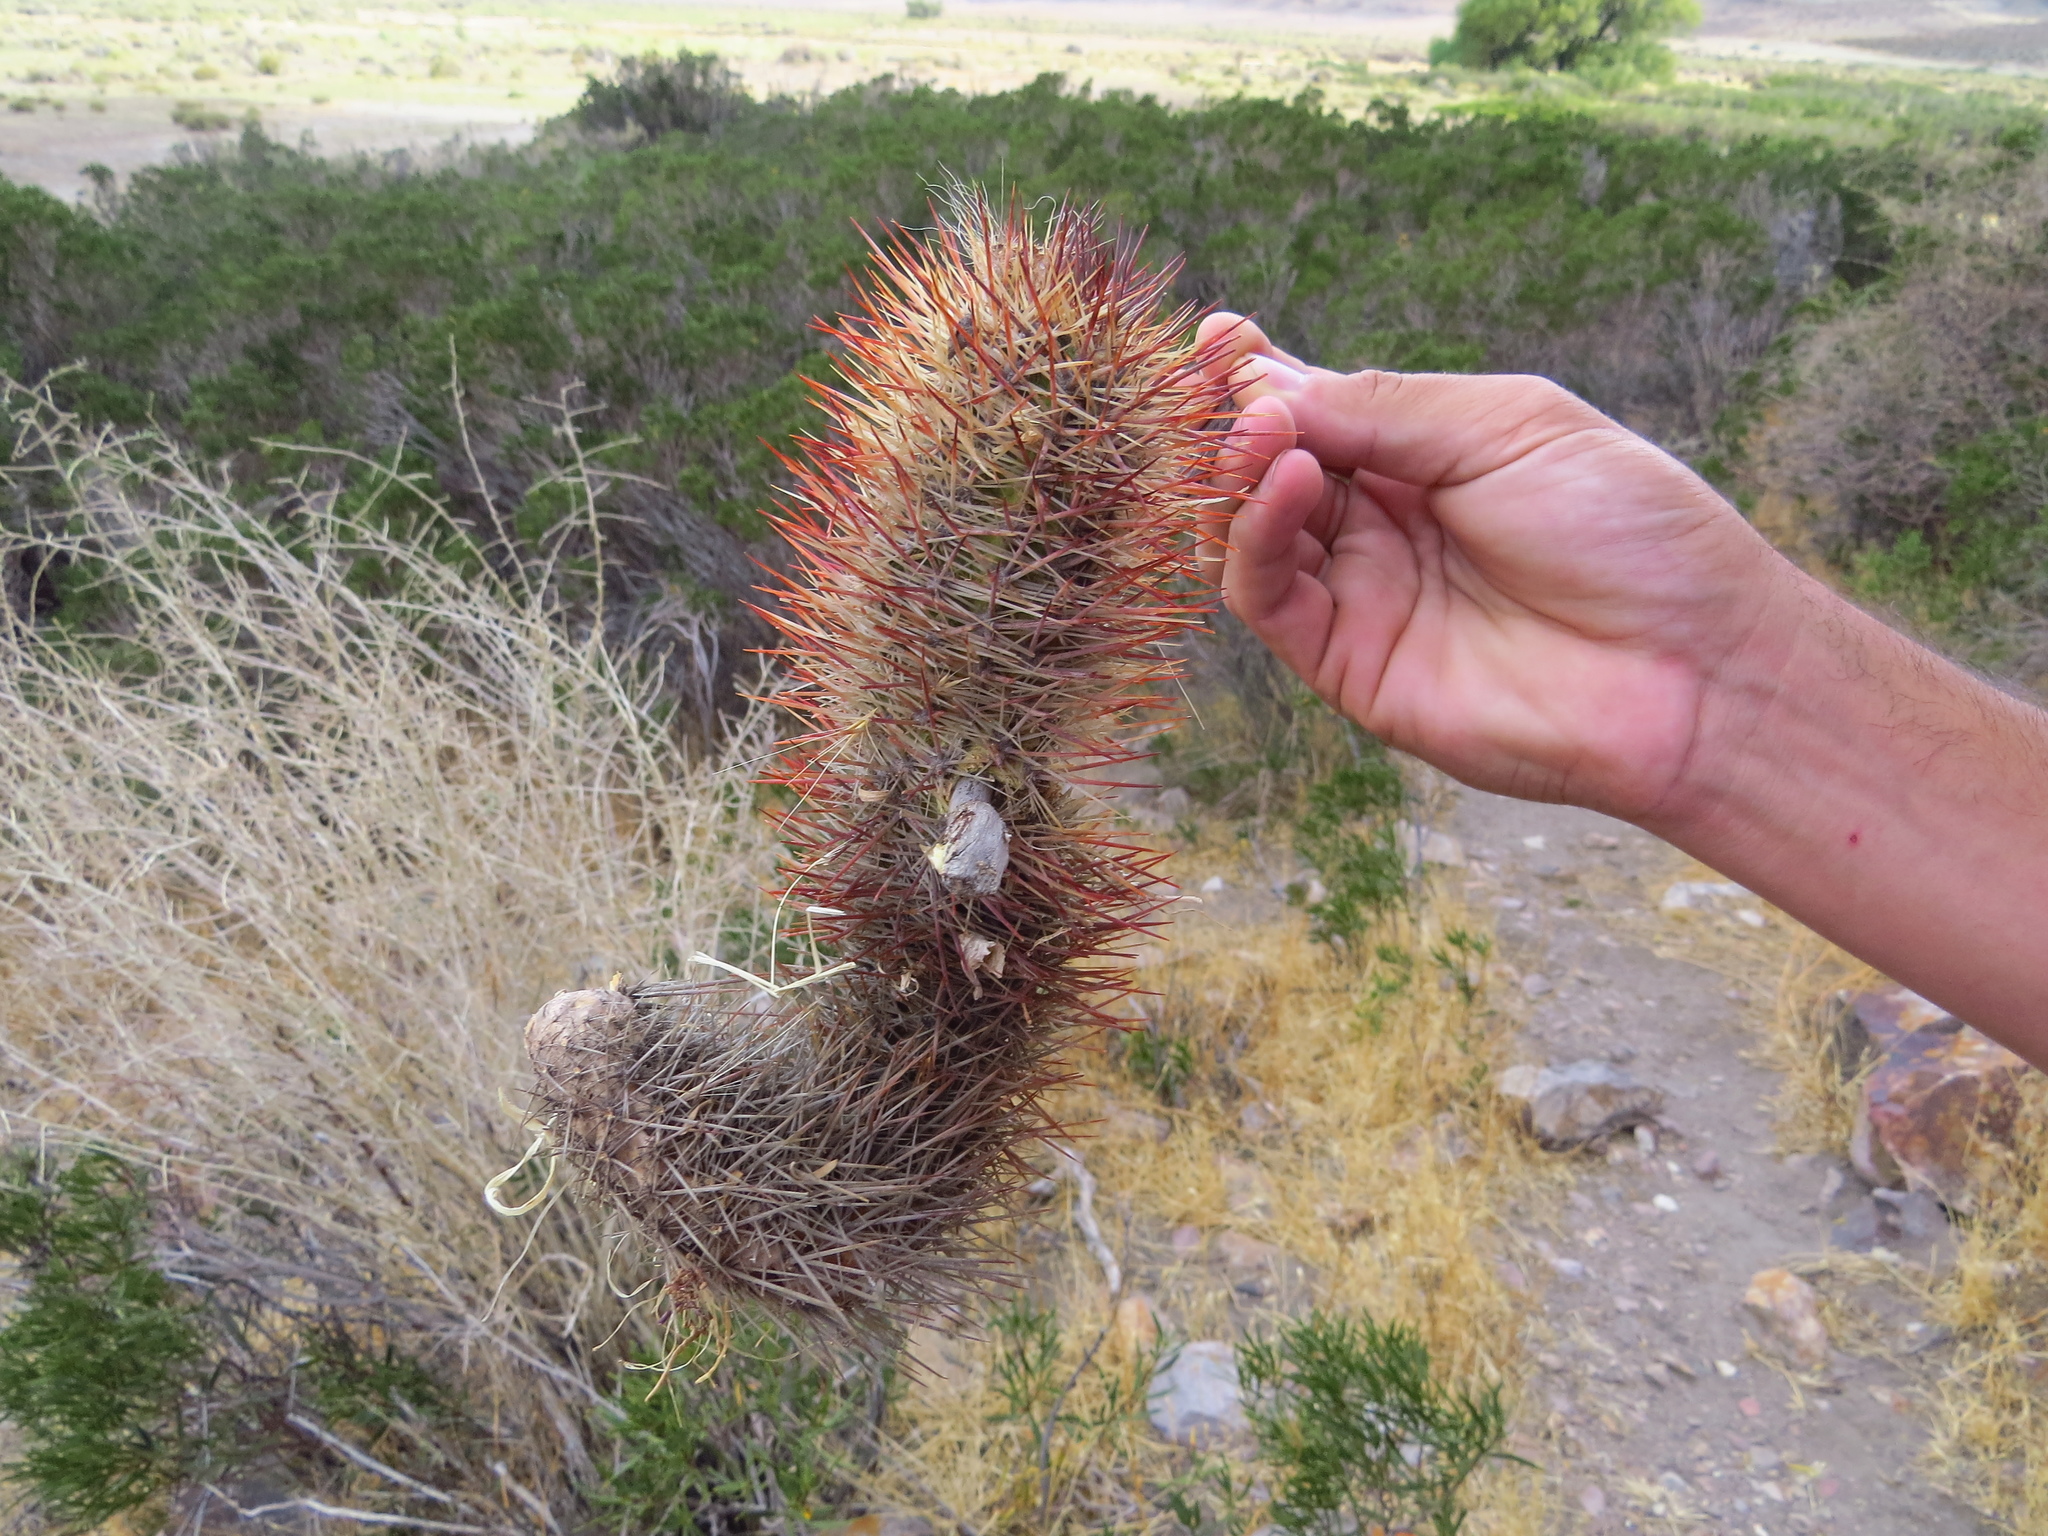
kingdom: Plantae
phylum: Tracheophyta
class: Magnoliopsida
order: Caryophyllales
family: Cactaceae
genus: Austrocactus
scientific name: Austrocactus bertinii
